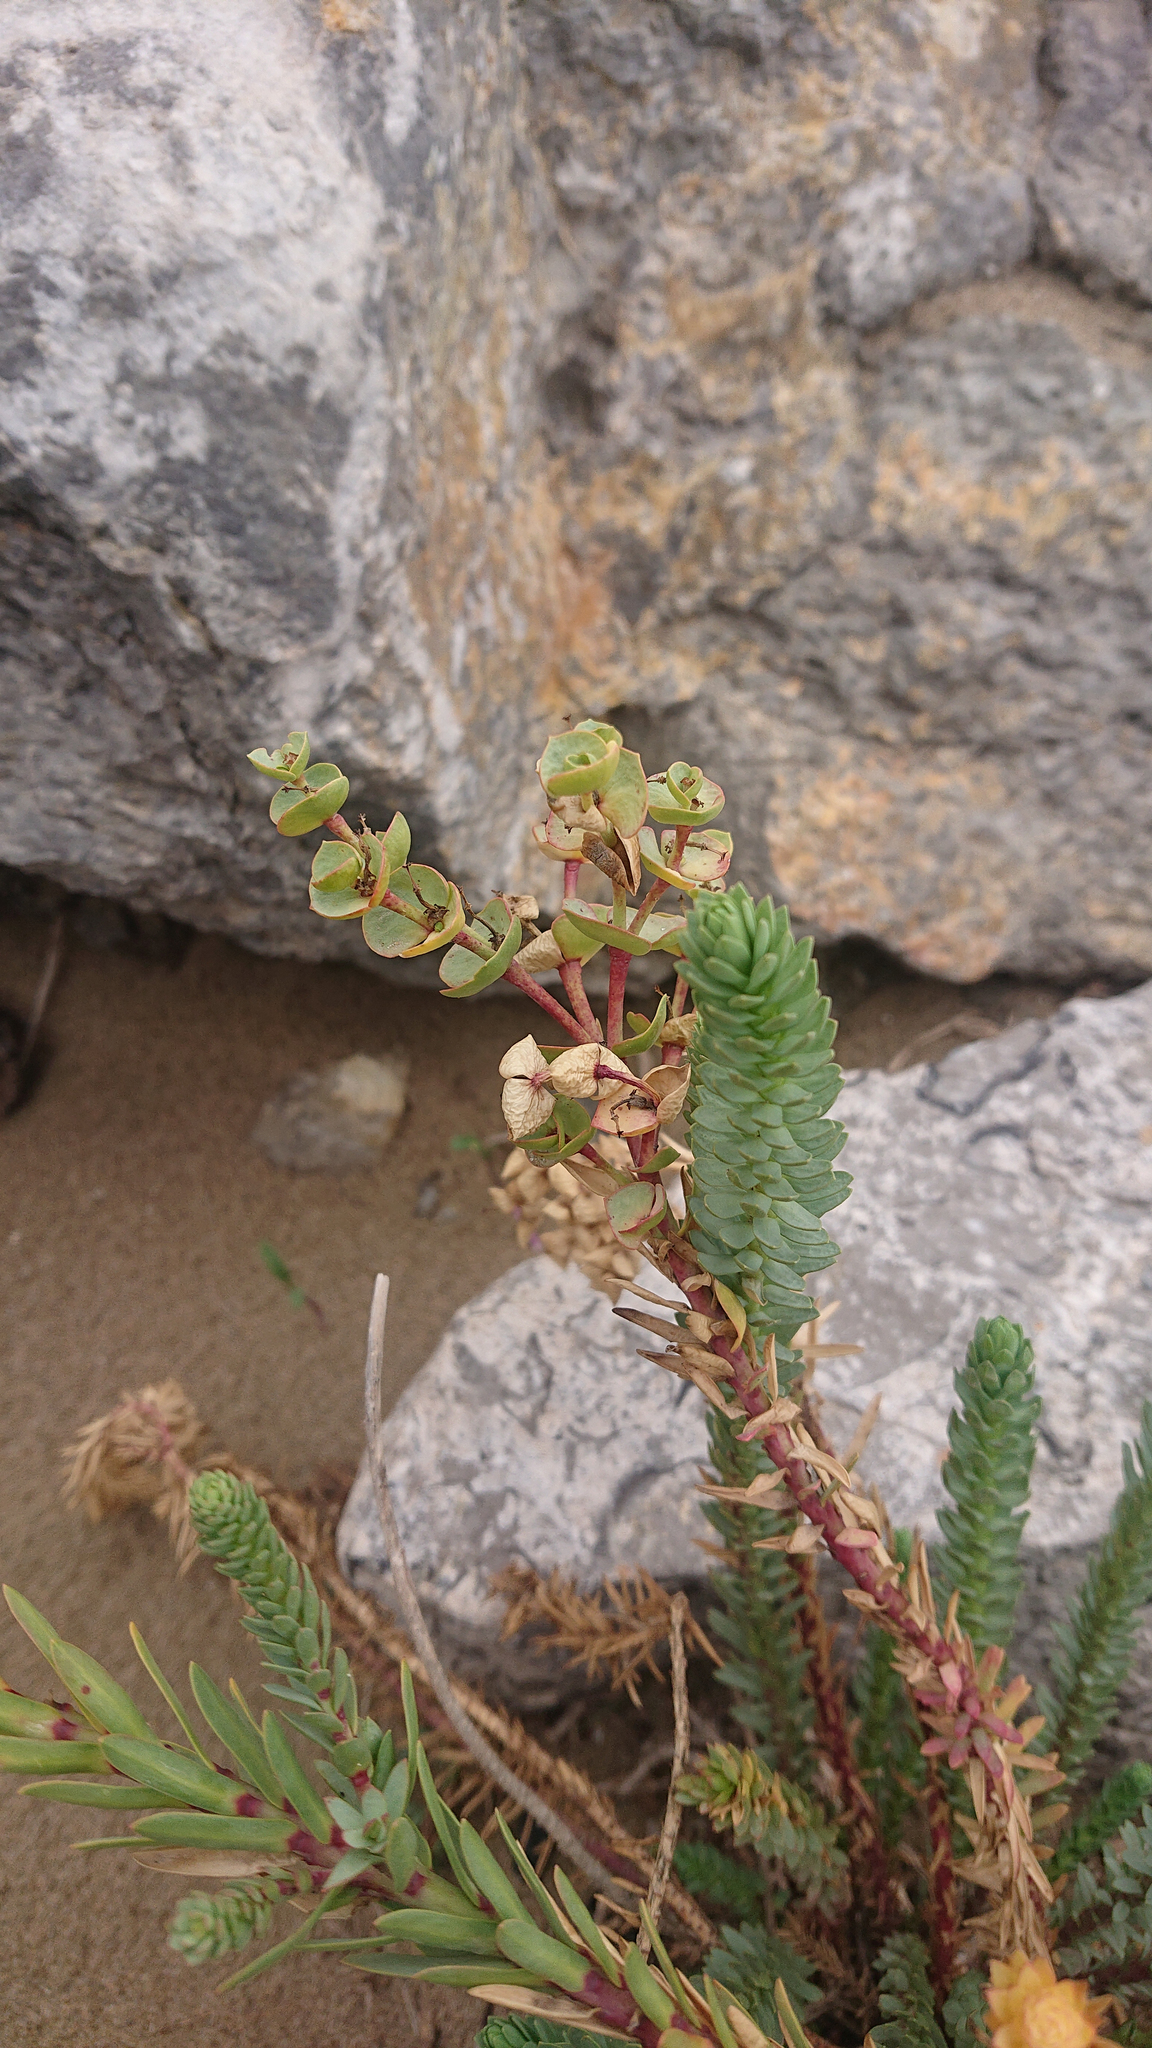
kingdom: Plantae
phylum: Tracheophyta
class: Magnoliopsida
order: Malpighiales
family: Euphorbiaceae
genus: Euphorbia
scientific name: Euphorbia paralias
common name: Sea spurge
